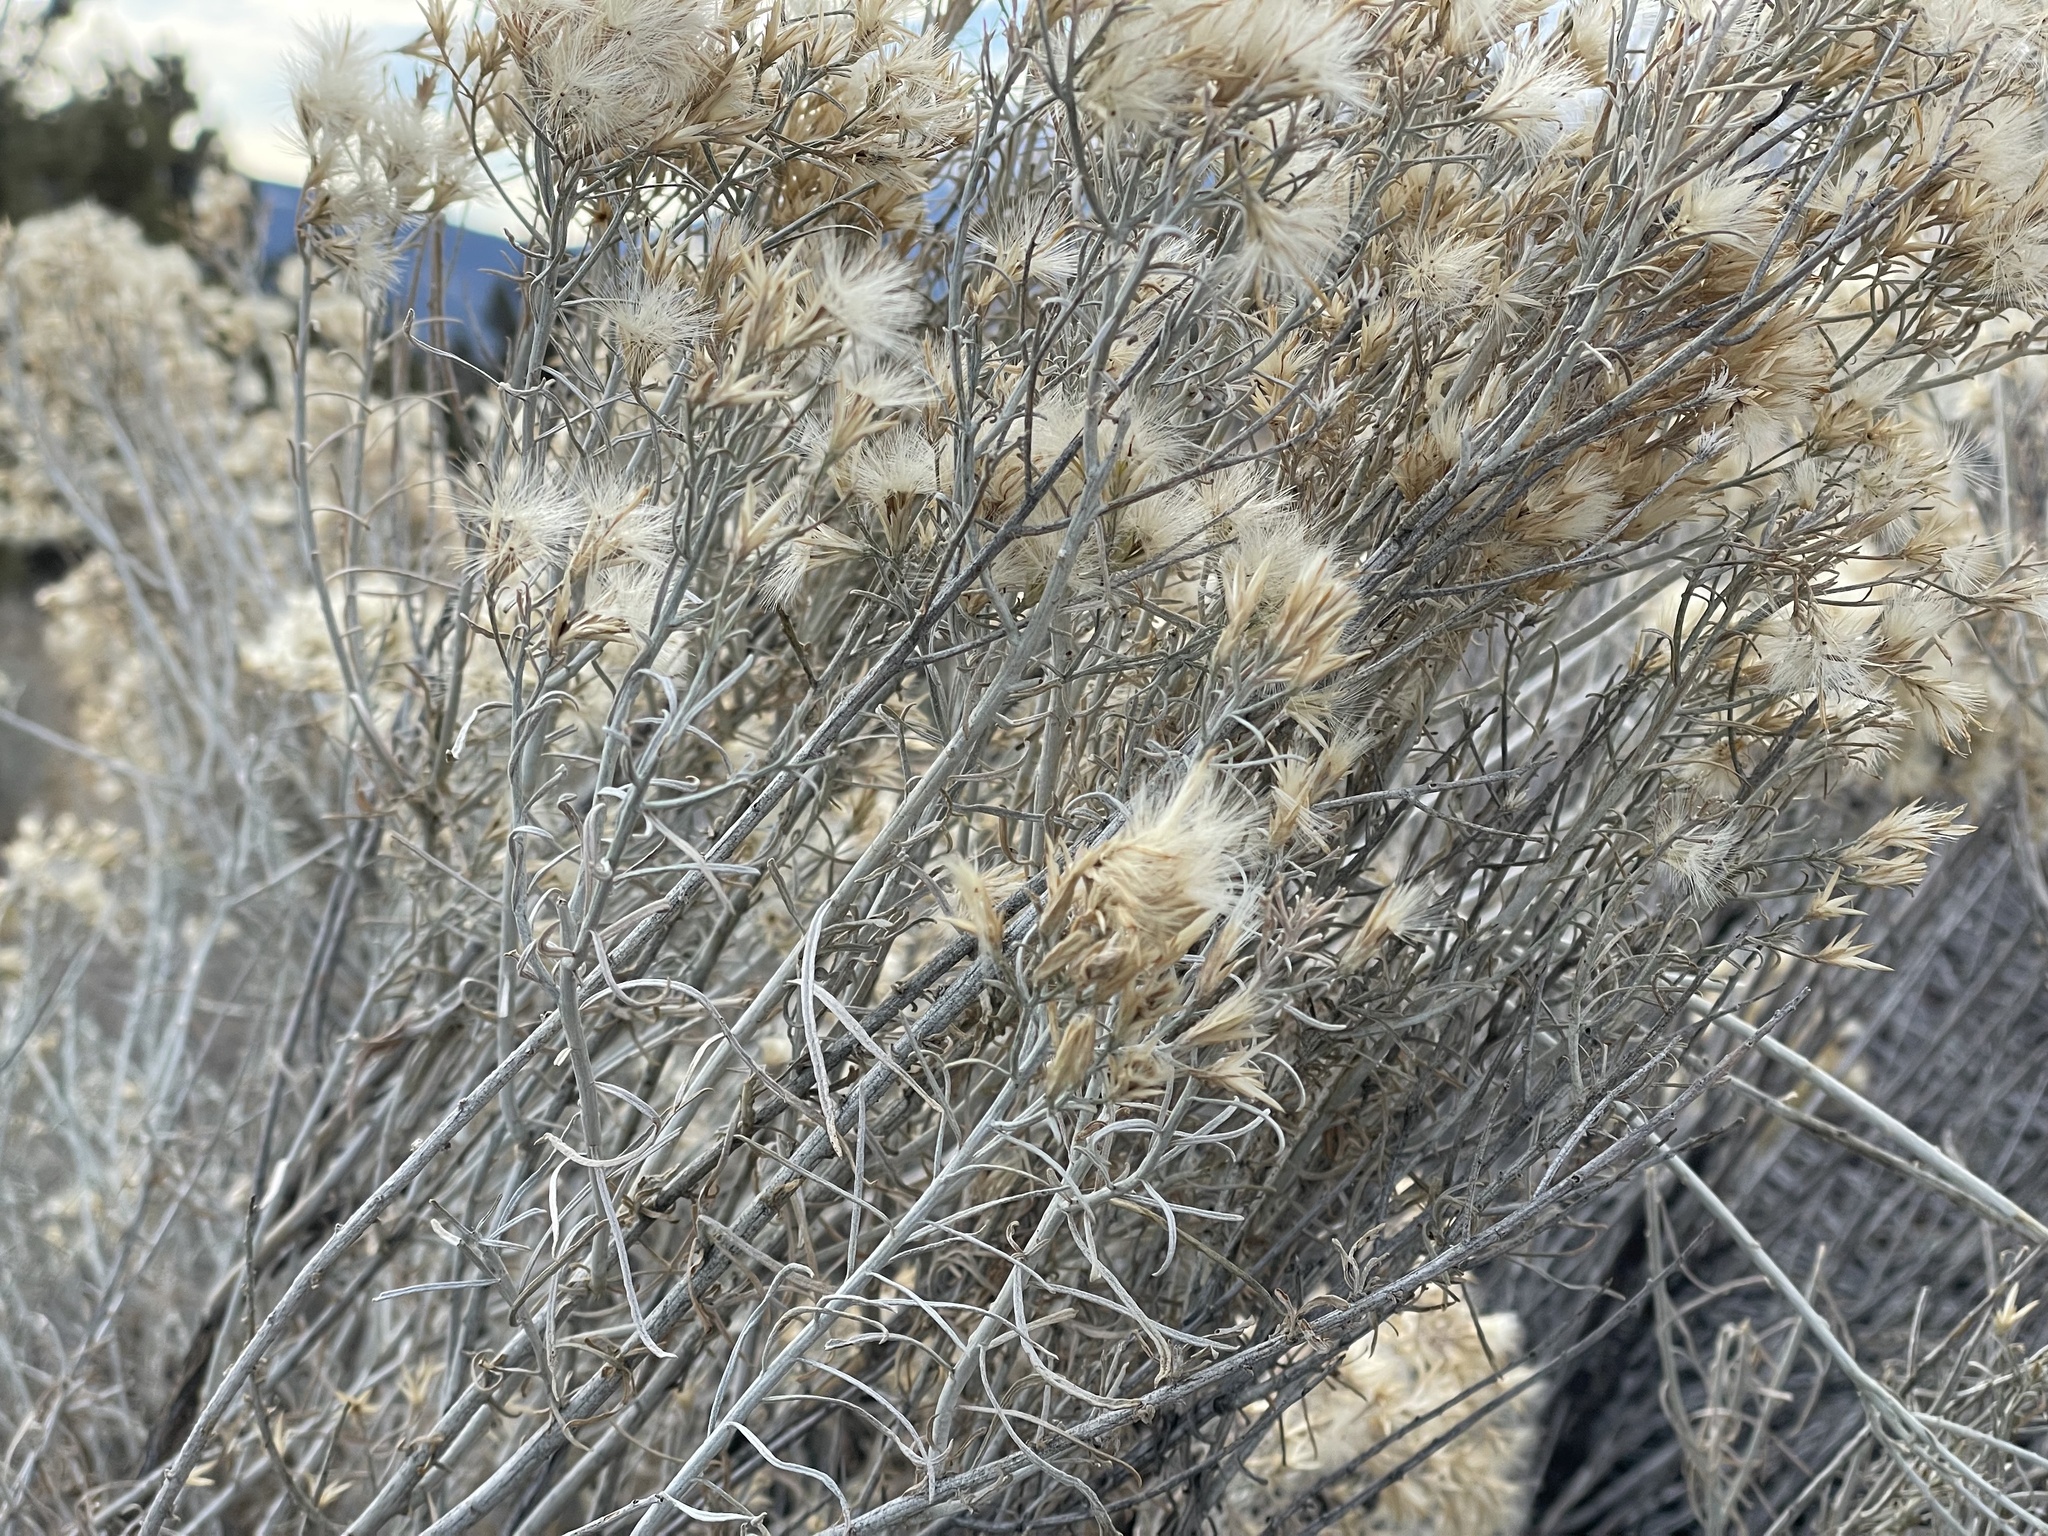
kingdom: Animalia
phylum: Arthropoda
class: Insecta
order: Diptera
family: Tephritidae
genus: Aciurina
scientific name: Aciurina bigeloviae
